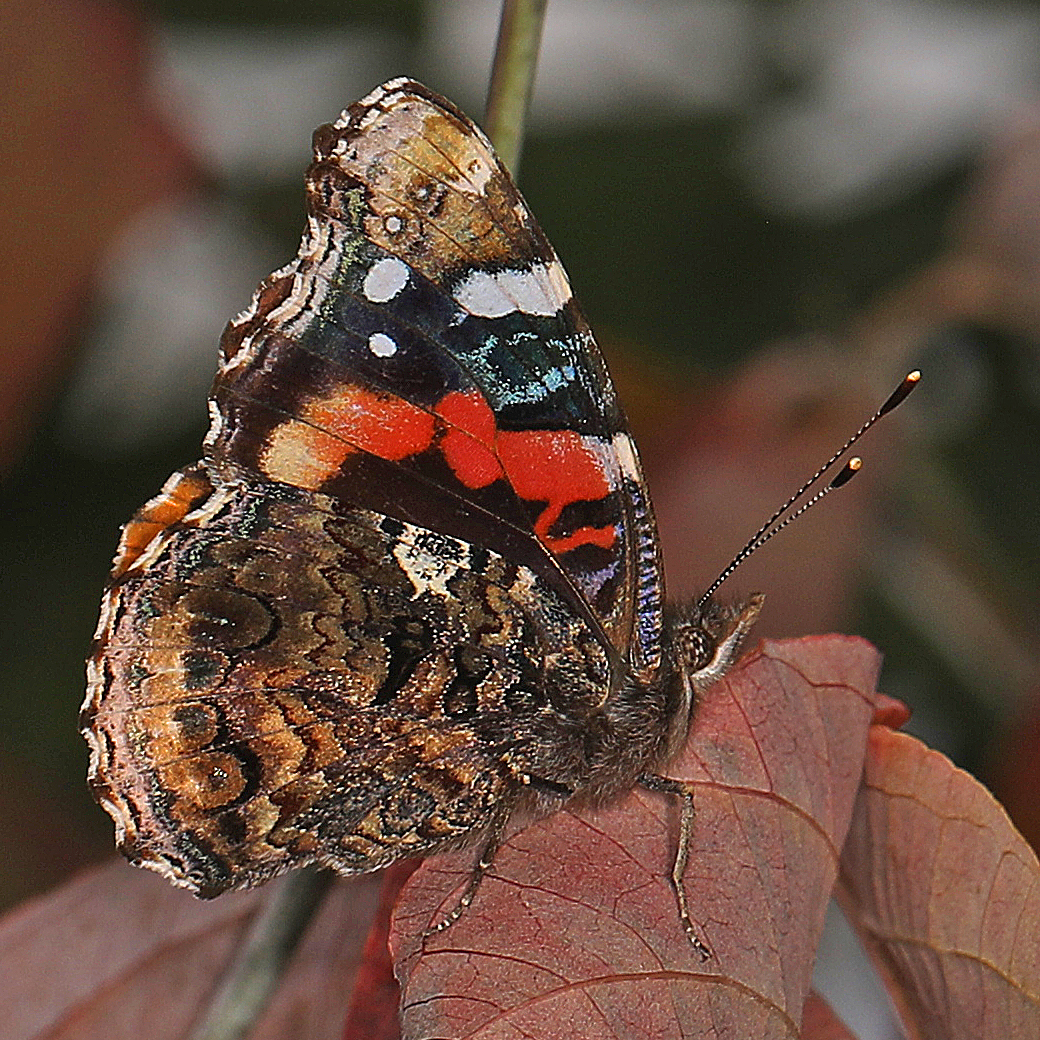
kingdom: Animalia
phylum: Arthropoda
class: Insecta
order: Lepidoptera
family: Nymphalidae
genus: Vanessa
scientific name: Vanessa atalanta
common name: Red admiral
